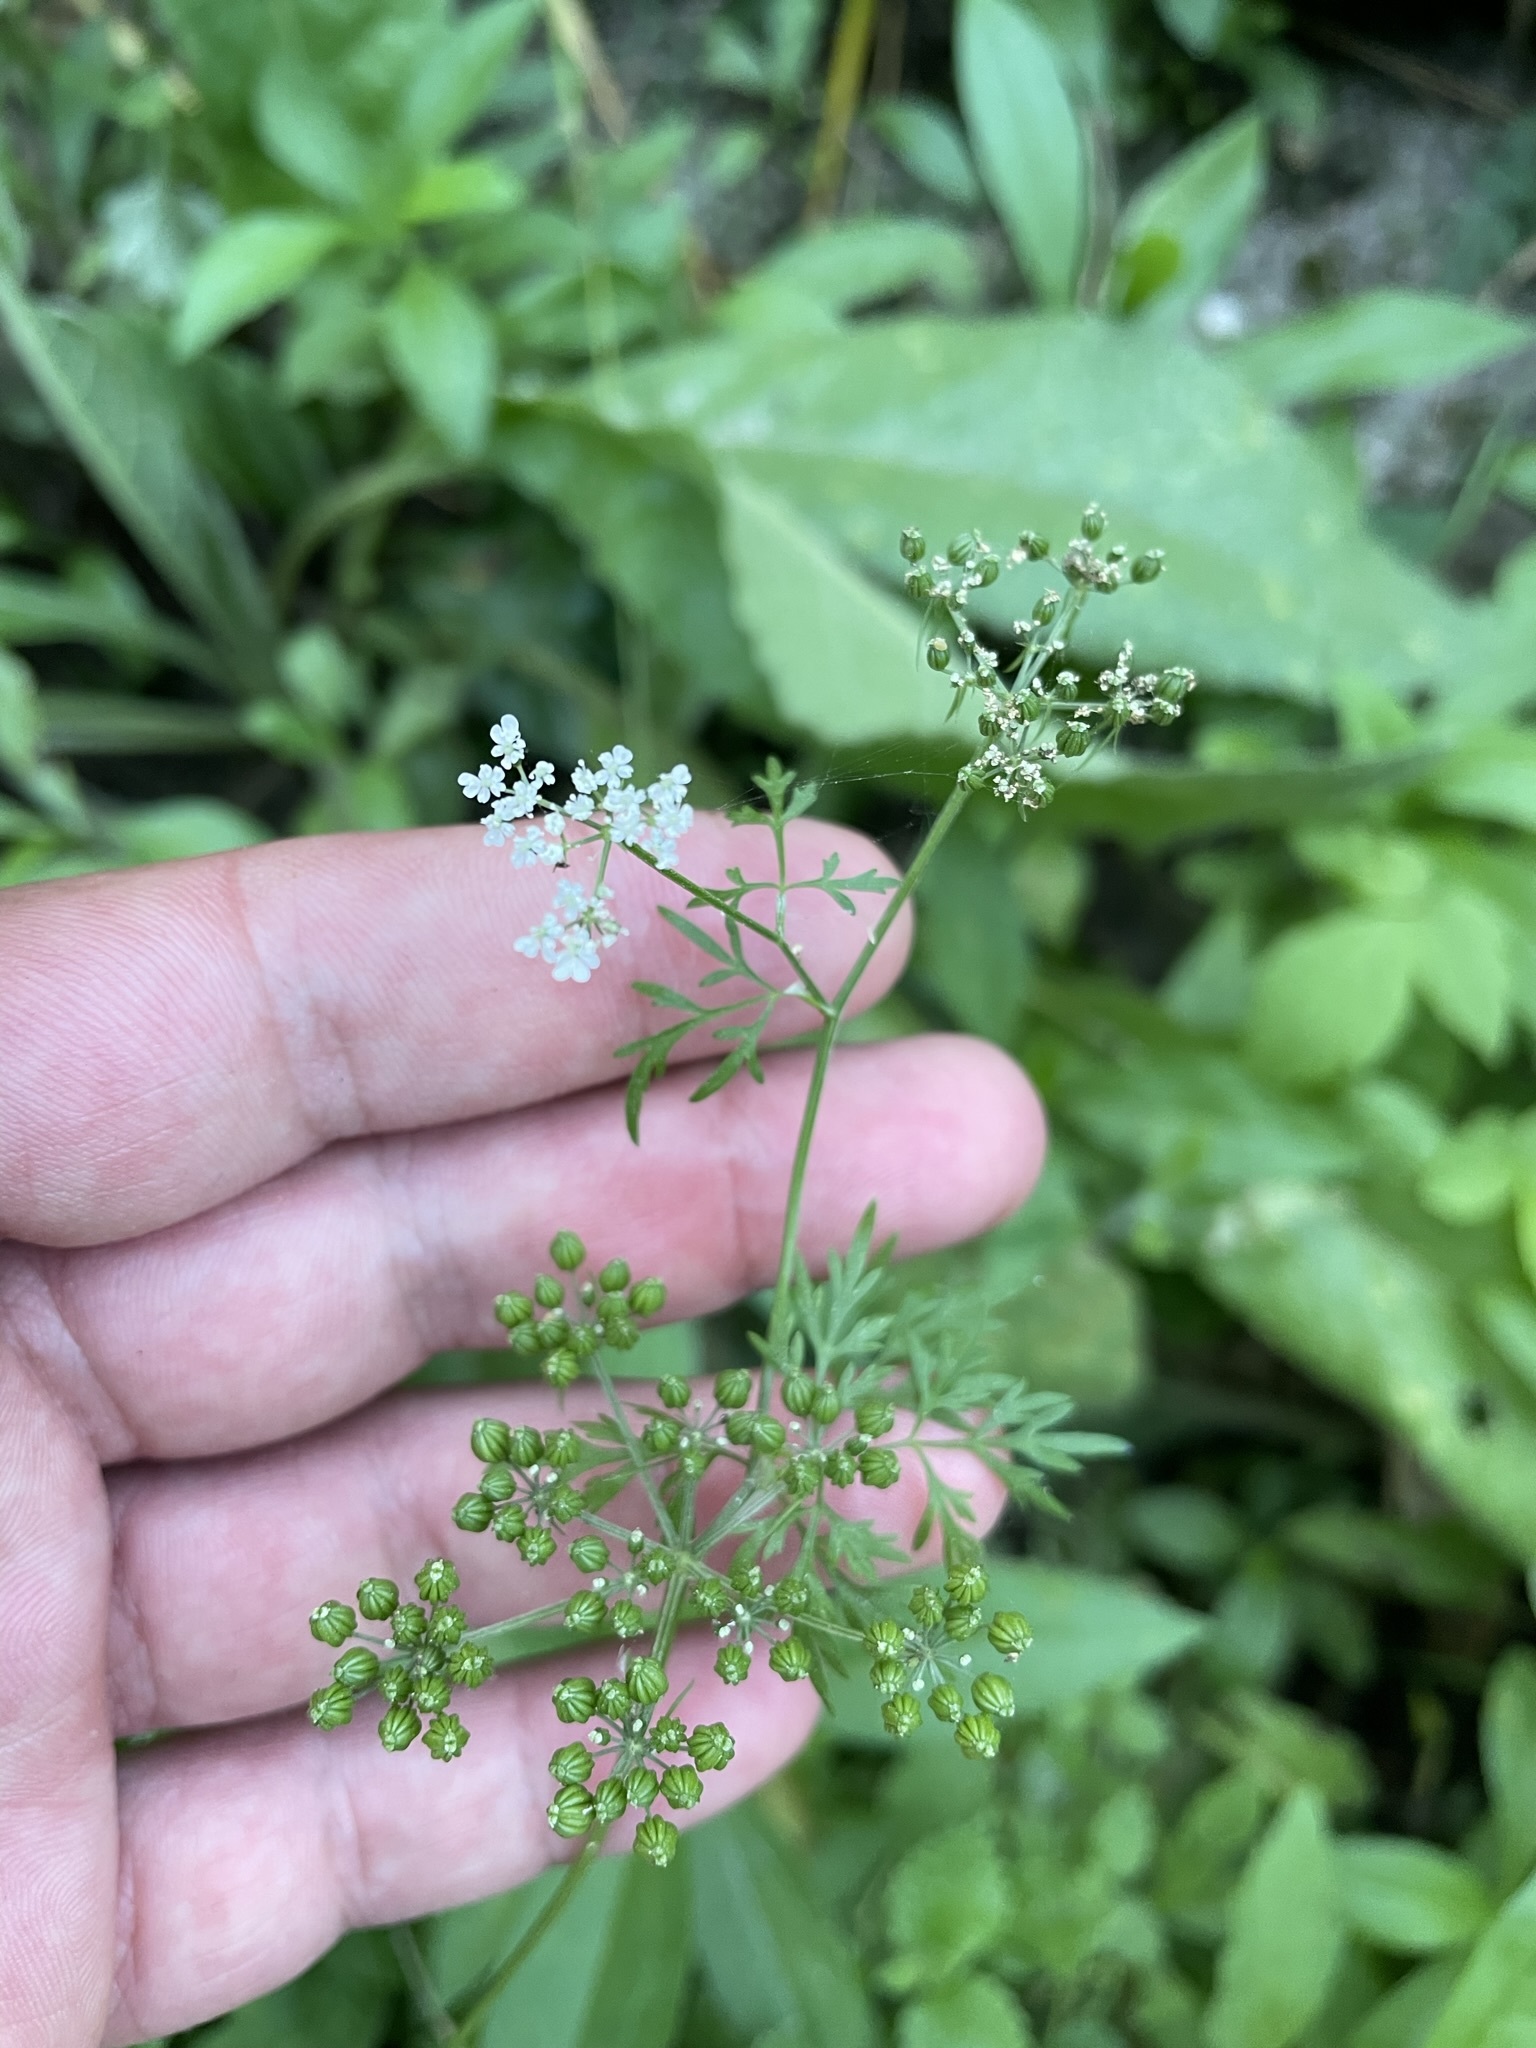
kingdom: Plantae
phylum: Tracheophyta
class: Magnoliopsida
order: Apiales
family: Apiaceae
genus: Aethusa
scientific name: Aethusa cynapium
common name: Fool's parsley
